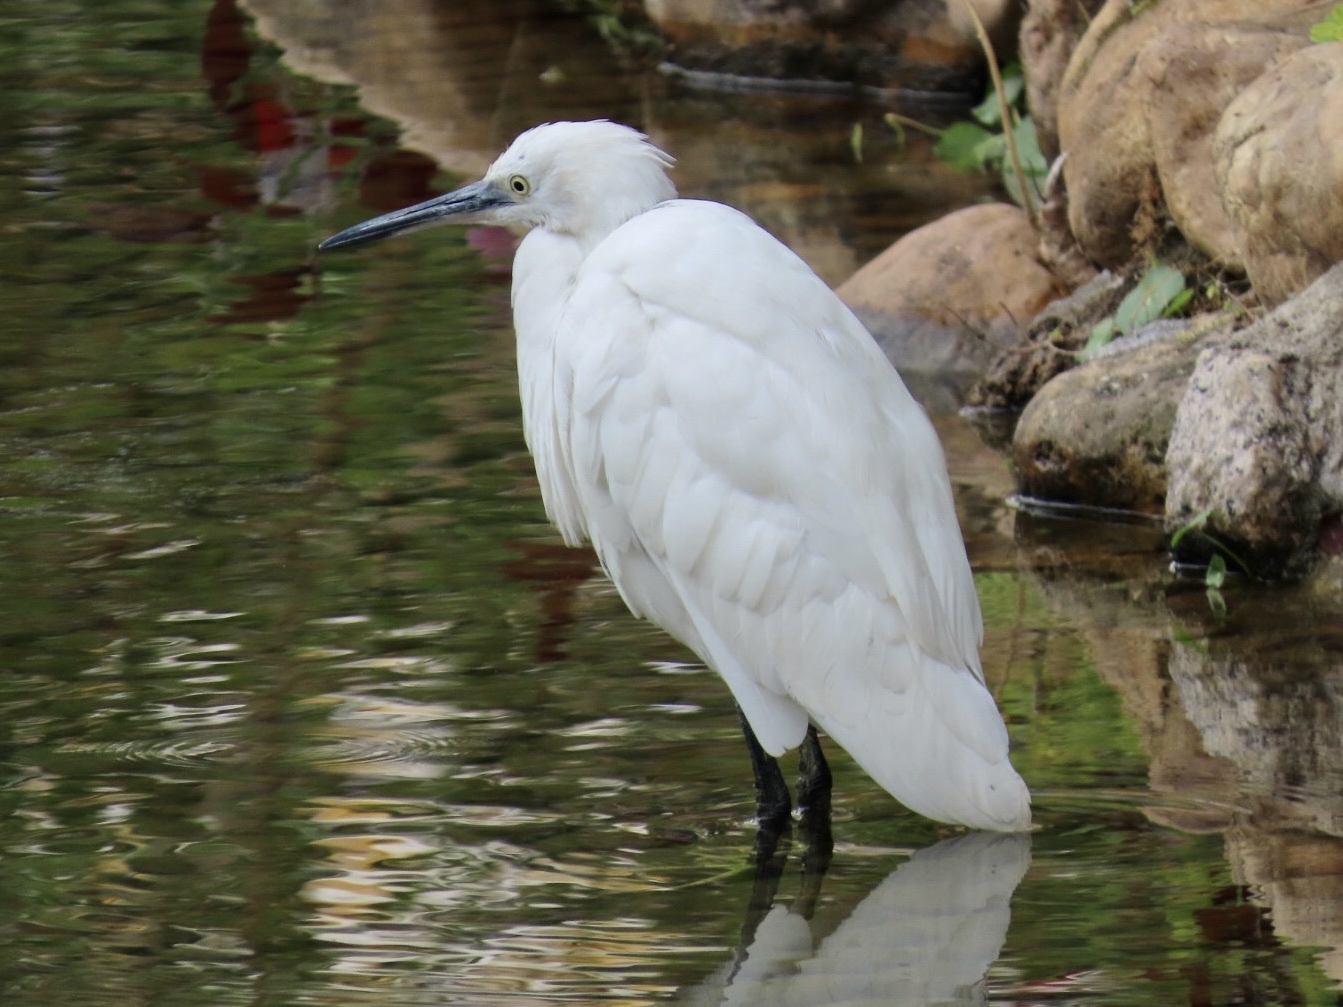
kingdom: Animalia
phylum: Chordata
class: Aves
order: Pelecaniformes
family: Ardeidae
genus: Egretta
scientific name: Egretta garzetta
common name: Little egret
